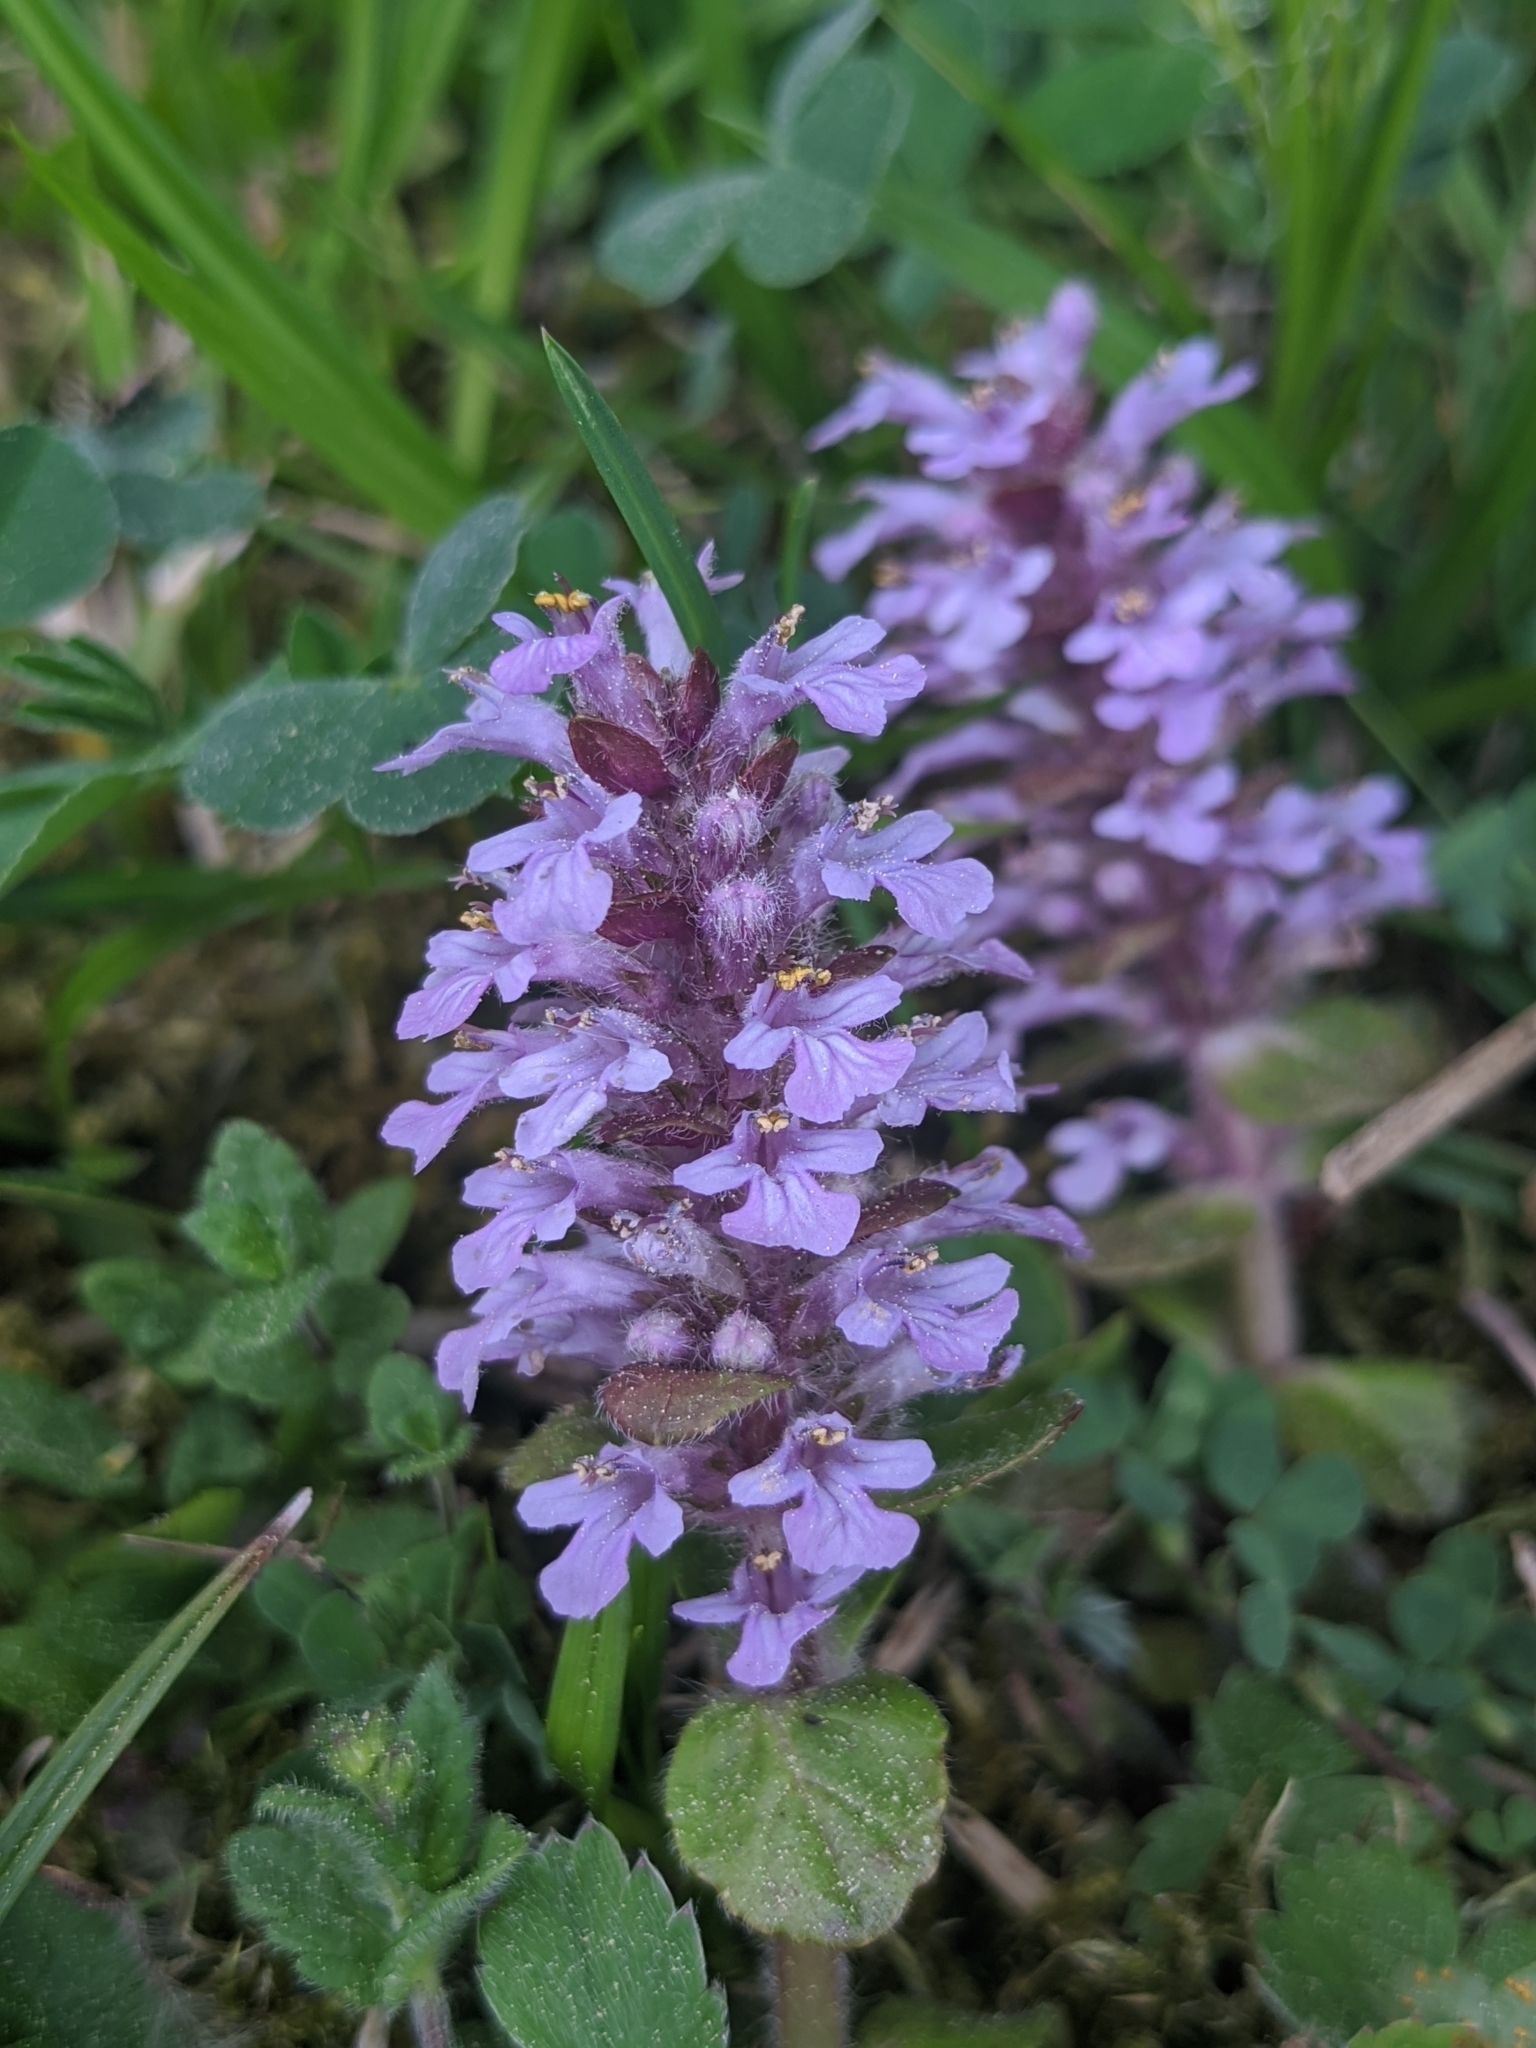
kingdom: Plantae
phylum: Tracheophyta
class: Magnoliopsida
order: Lamiales
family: Lamiaceae
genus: Ajuga
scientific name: Ajuga reptans
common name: Bugle
